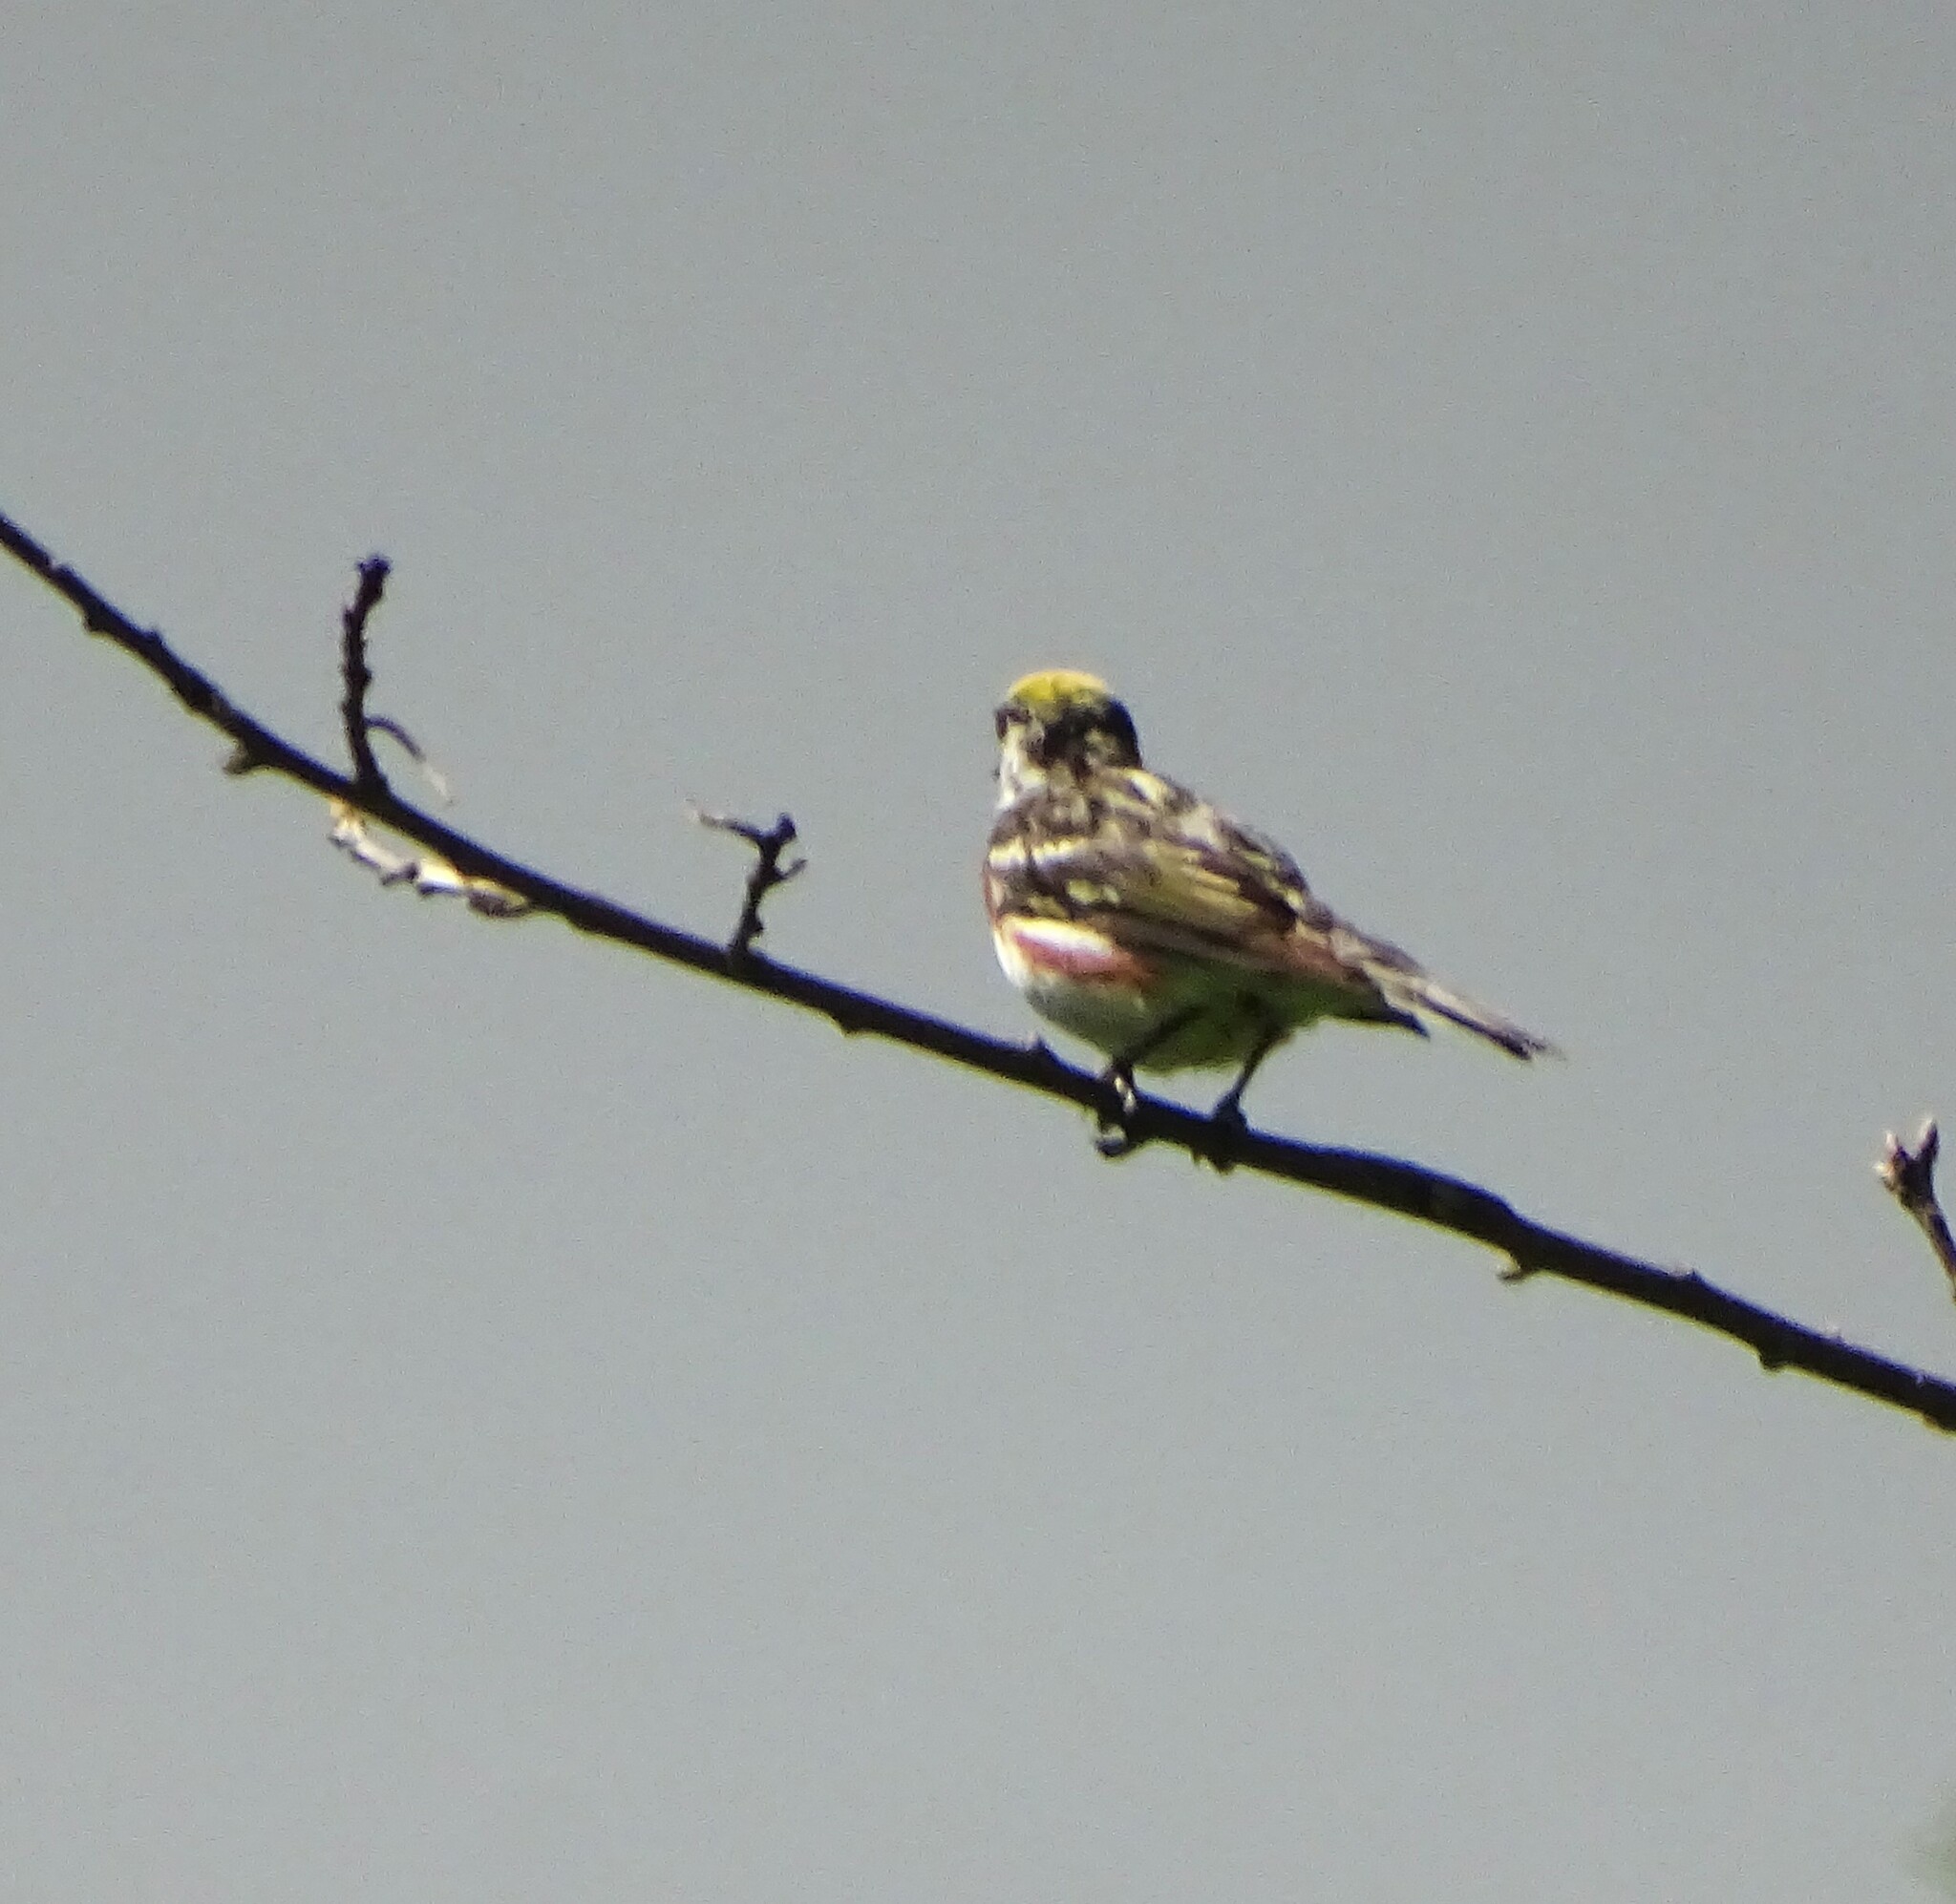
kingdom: Animalia
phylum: Chordata
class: Aves
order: Passeriformes
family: Parulidae
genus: Setophaga
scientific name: Setophaga pensylvanica
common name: Chestnut-sided warbler
